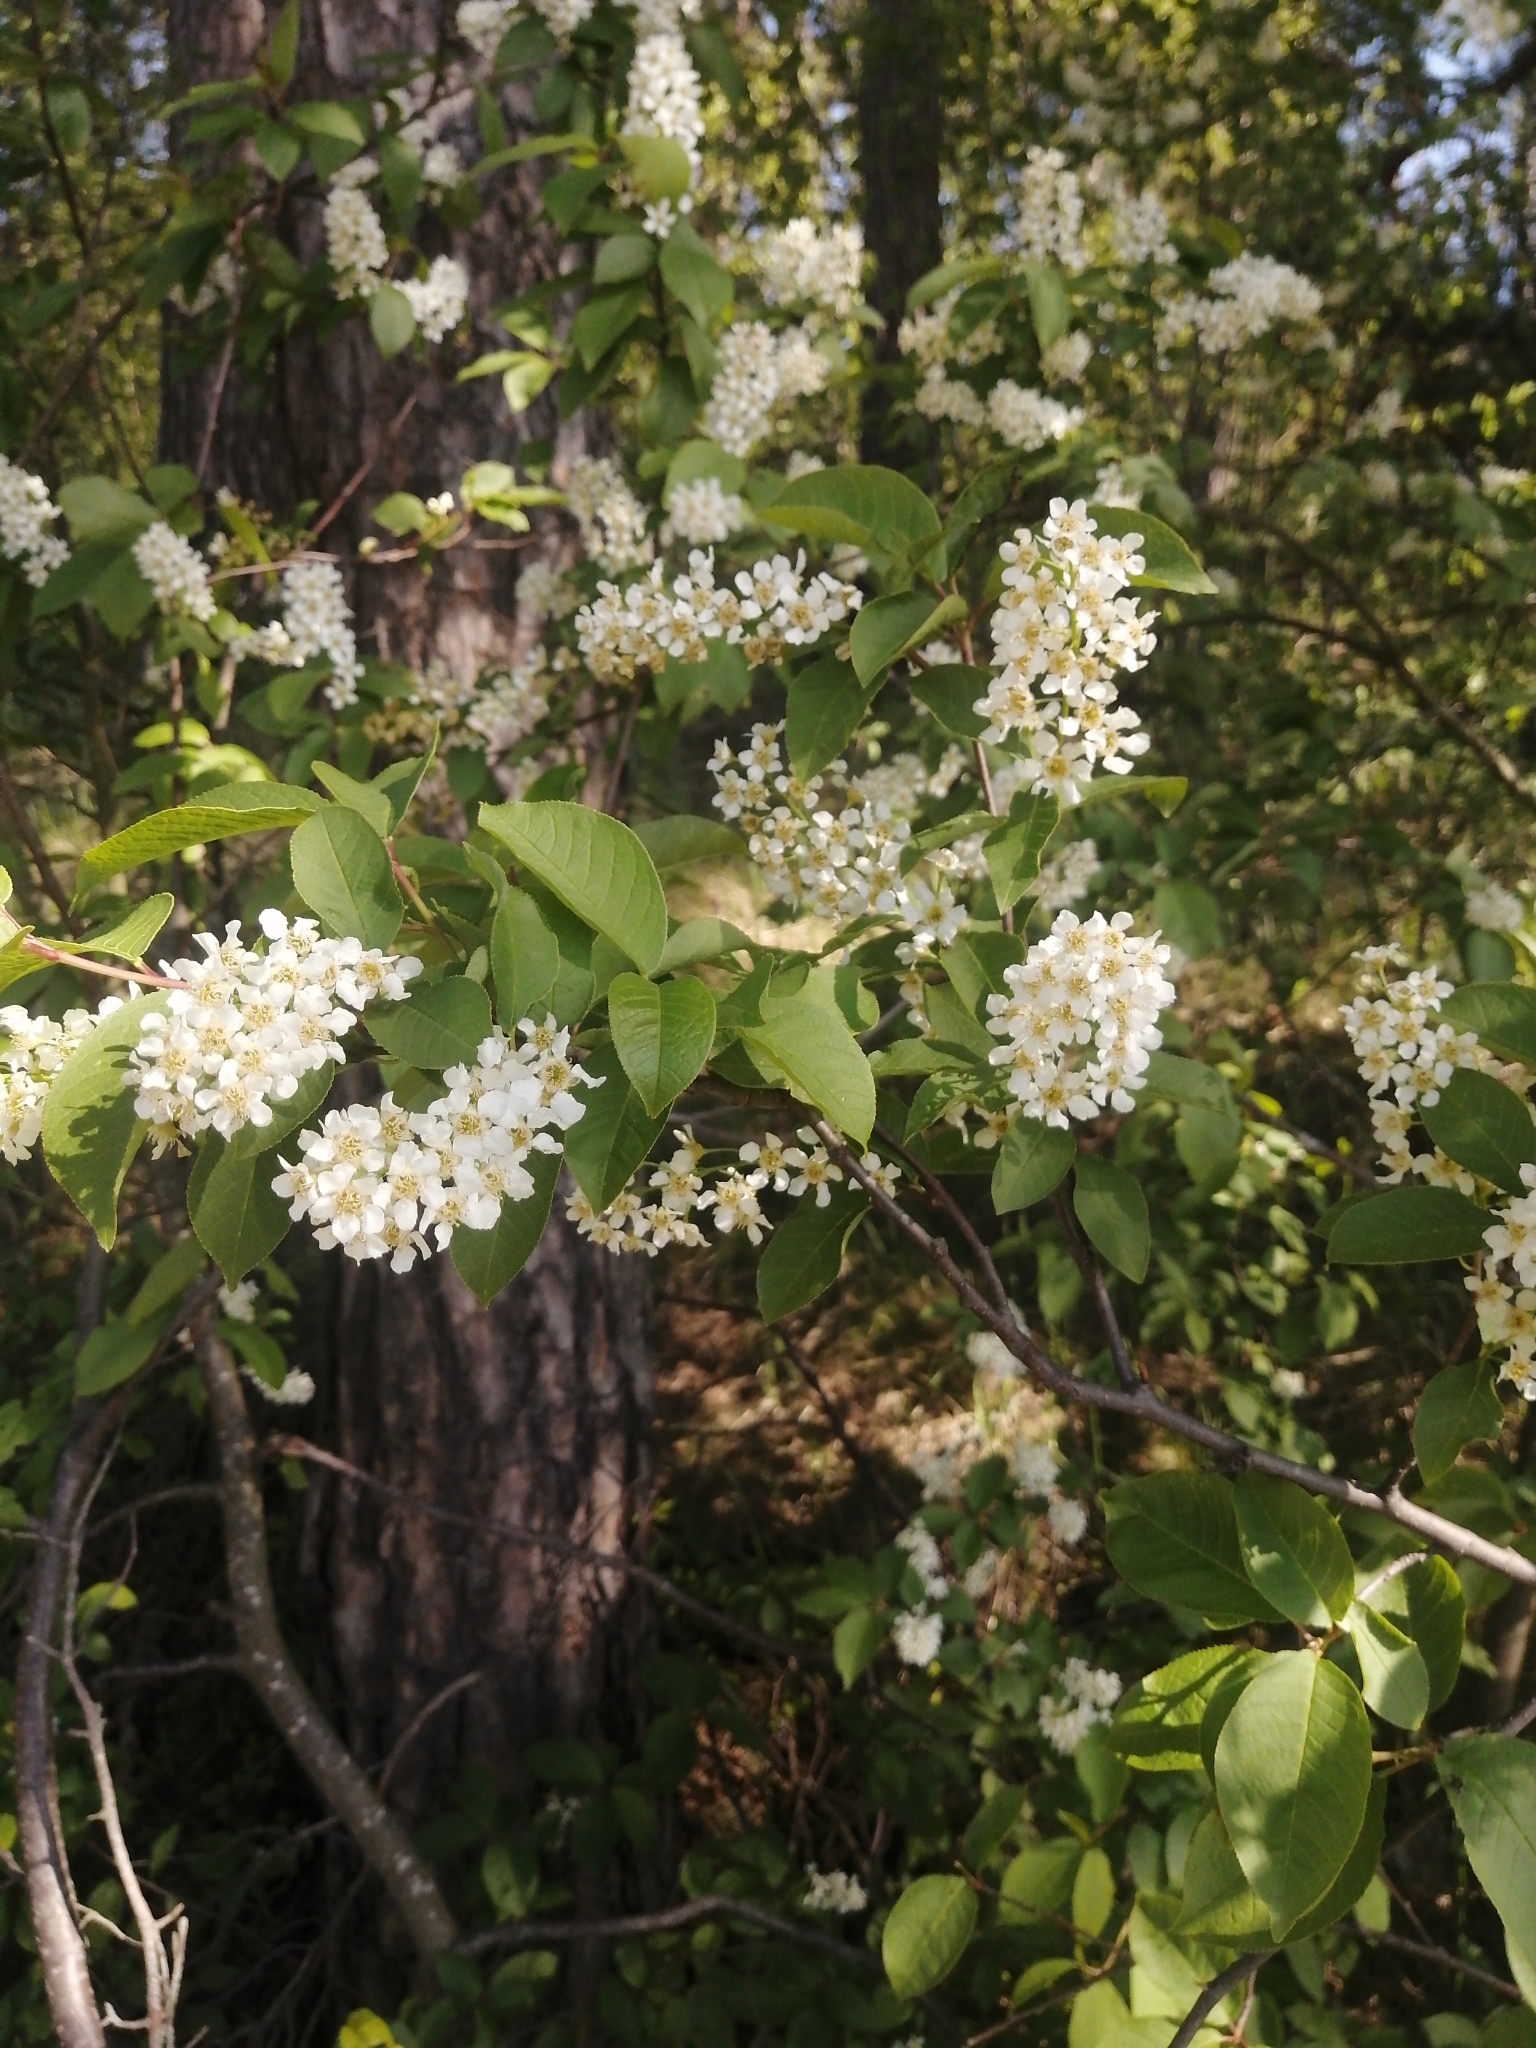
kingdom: Plantae
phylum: Tracheophyta
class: Magnoliopsida
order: Rosales
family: Rosaceae
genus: Prunus
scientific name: Prunus padus
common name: Bird cherry
